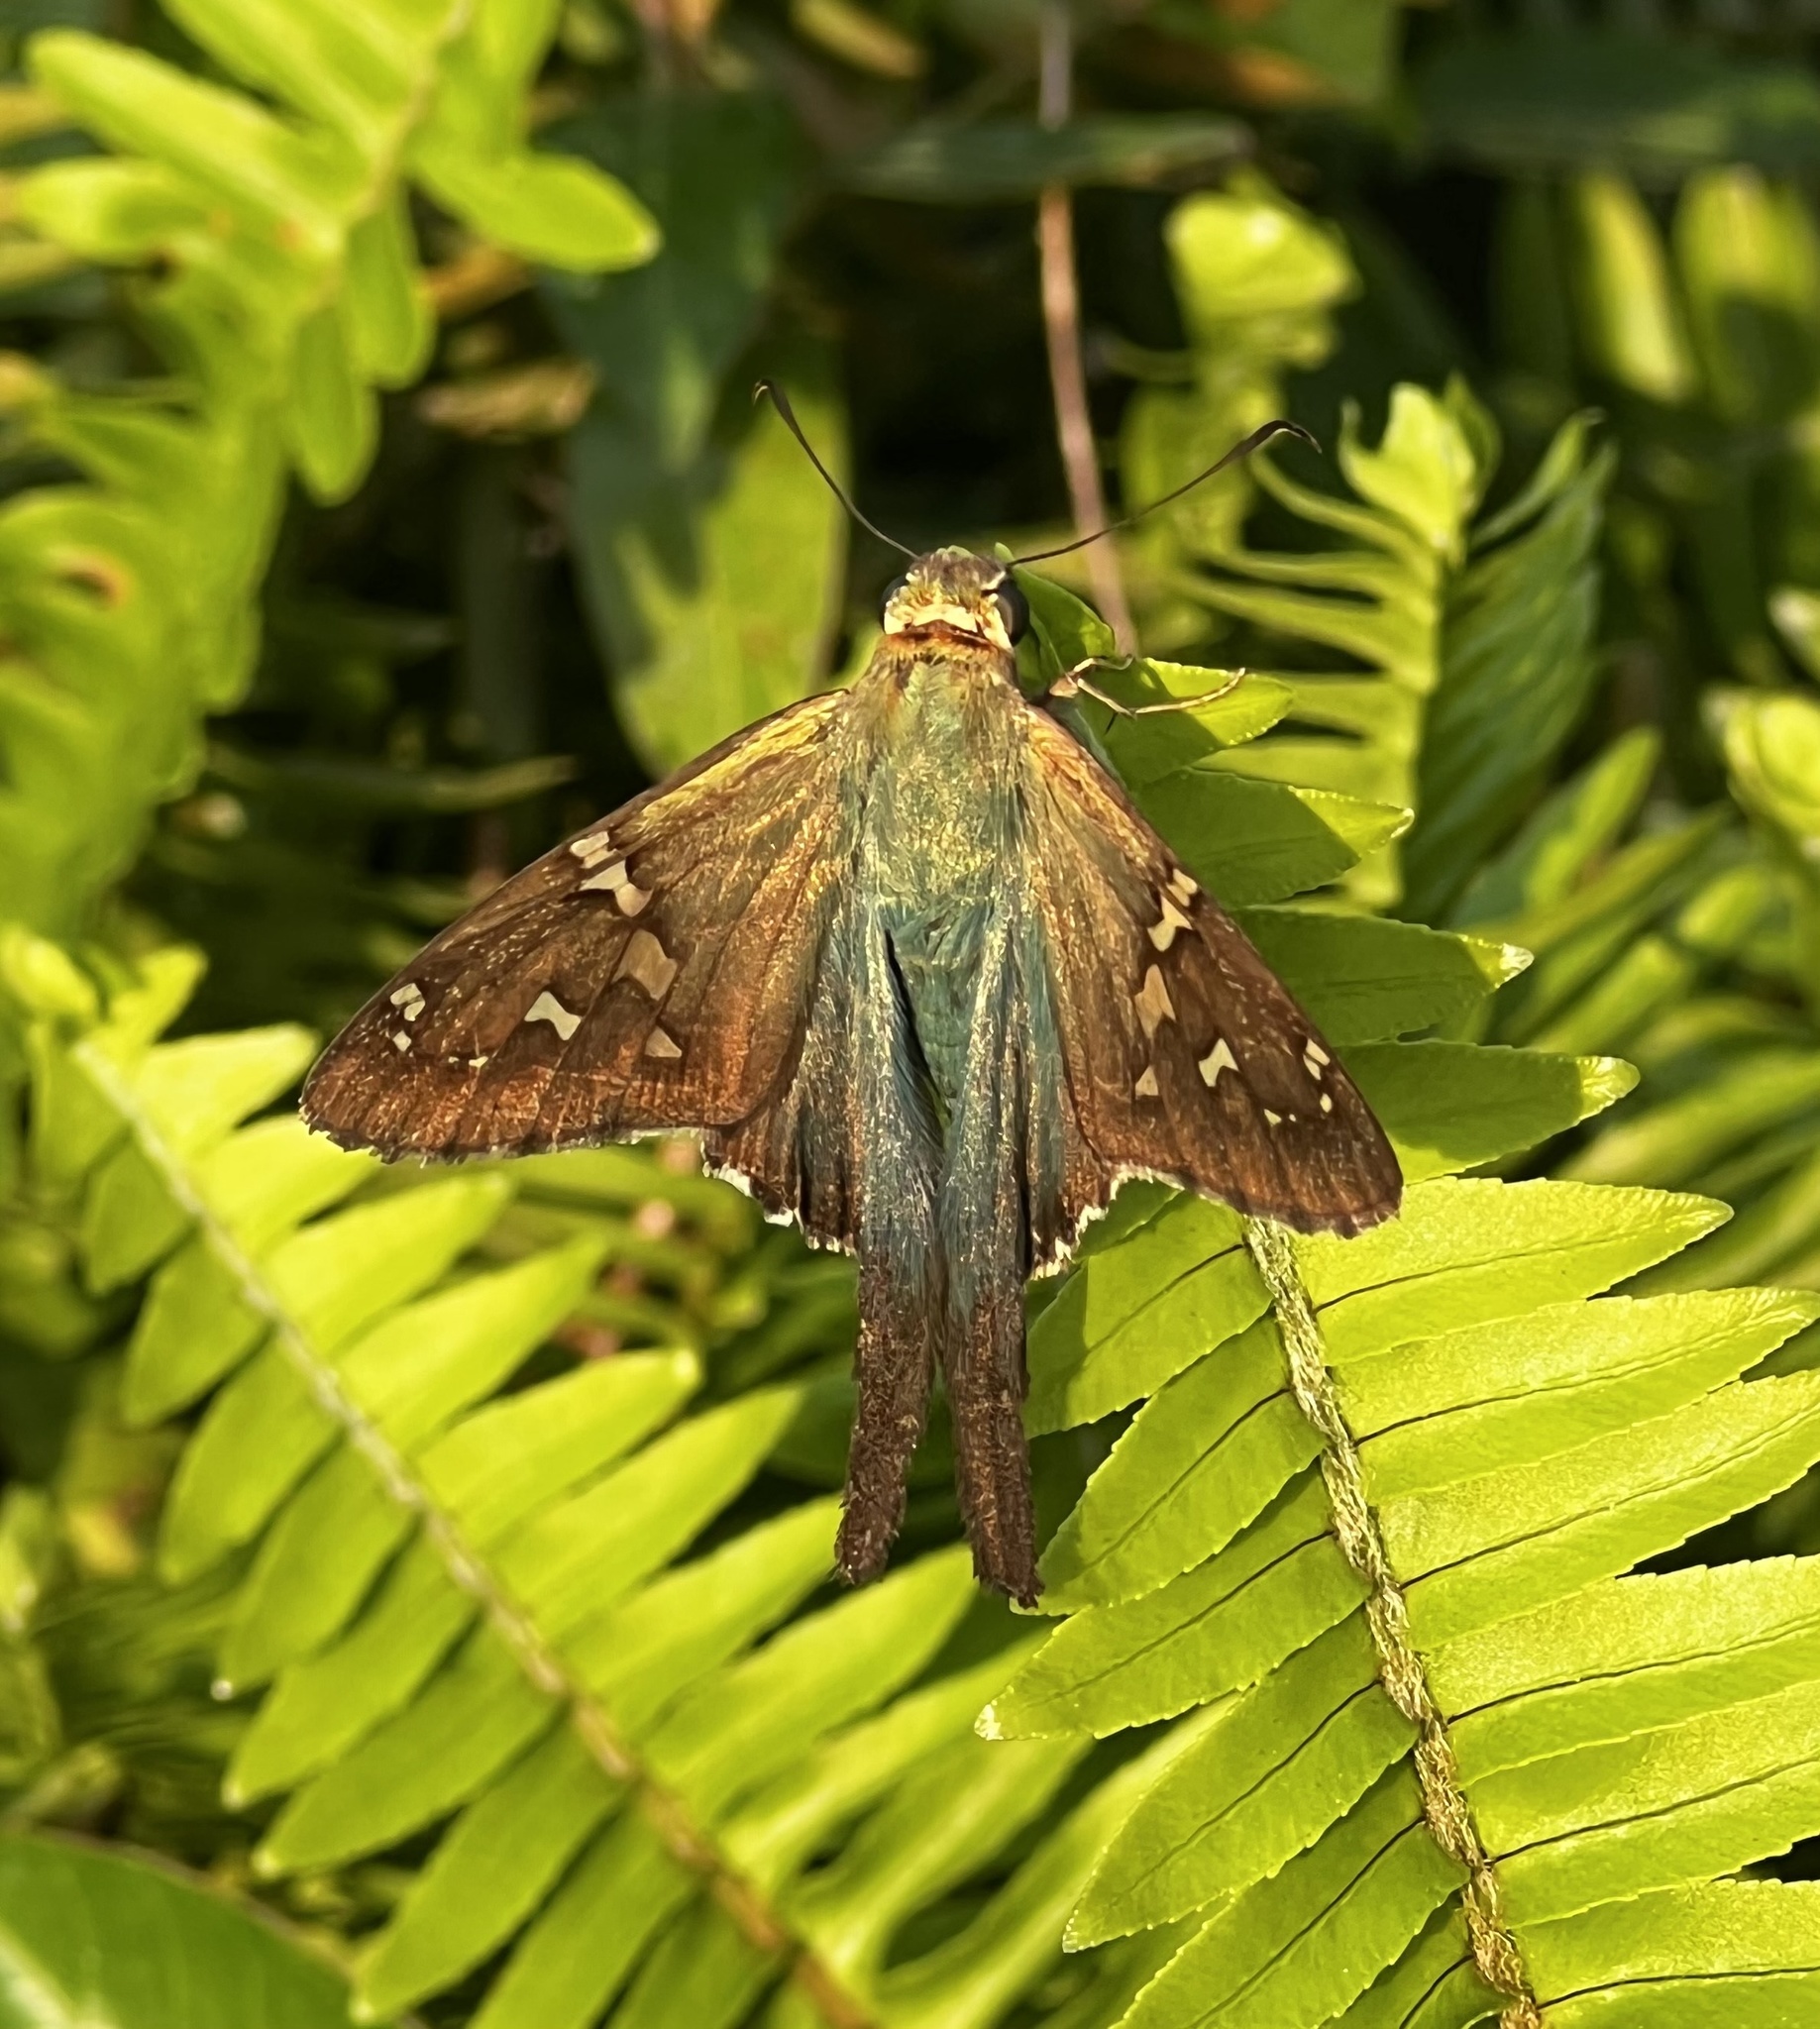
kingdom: Animalia
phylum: Arthropoda
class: Insecta
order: Lepidoptera
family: Hesperiidae
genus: Urbanus
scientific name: Urbanus proteus
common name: Long-tailed skipper
